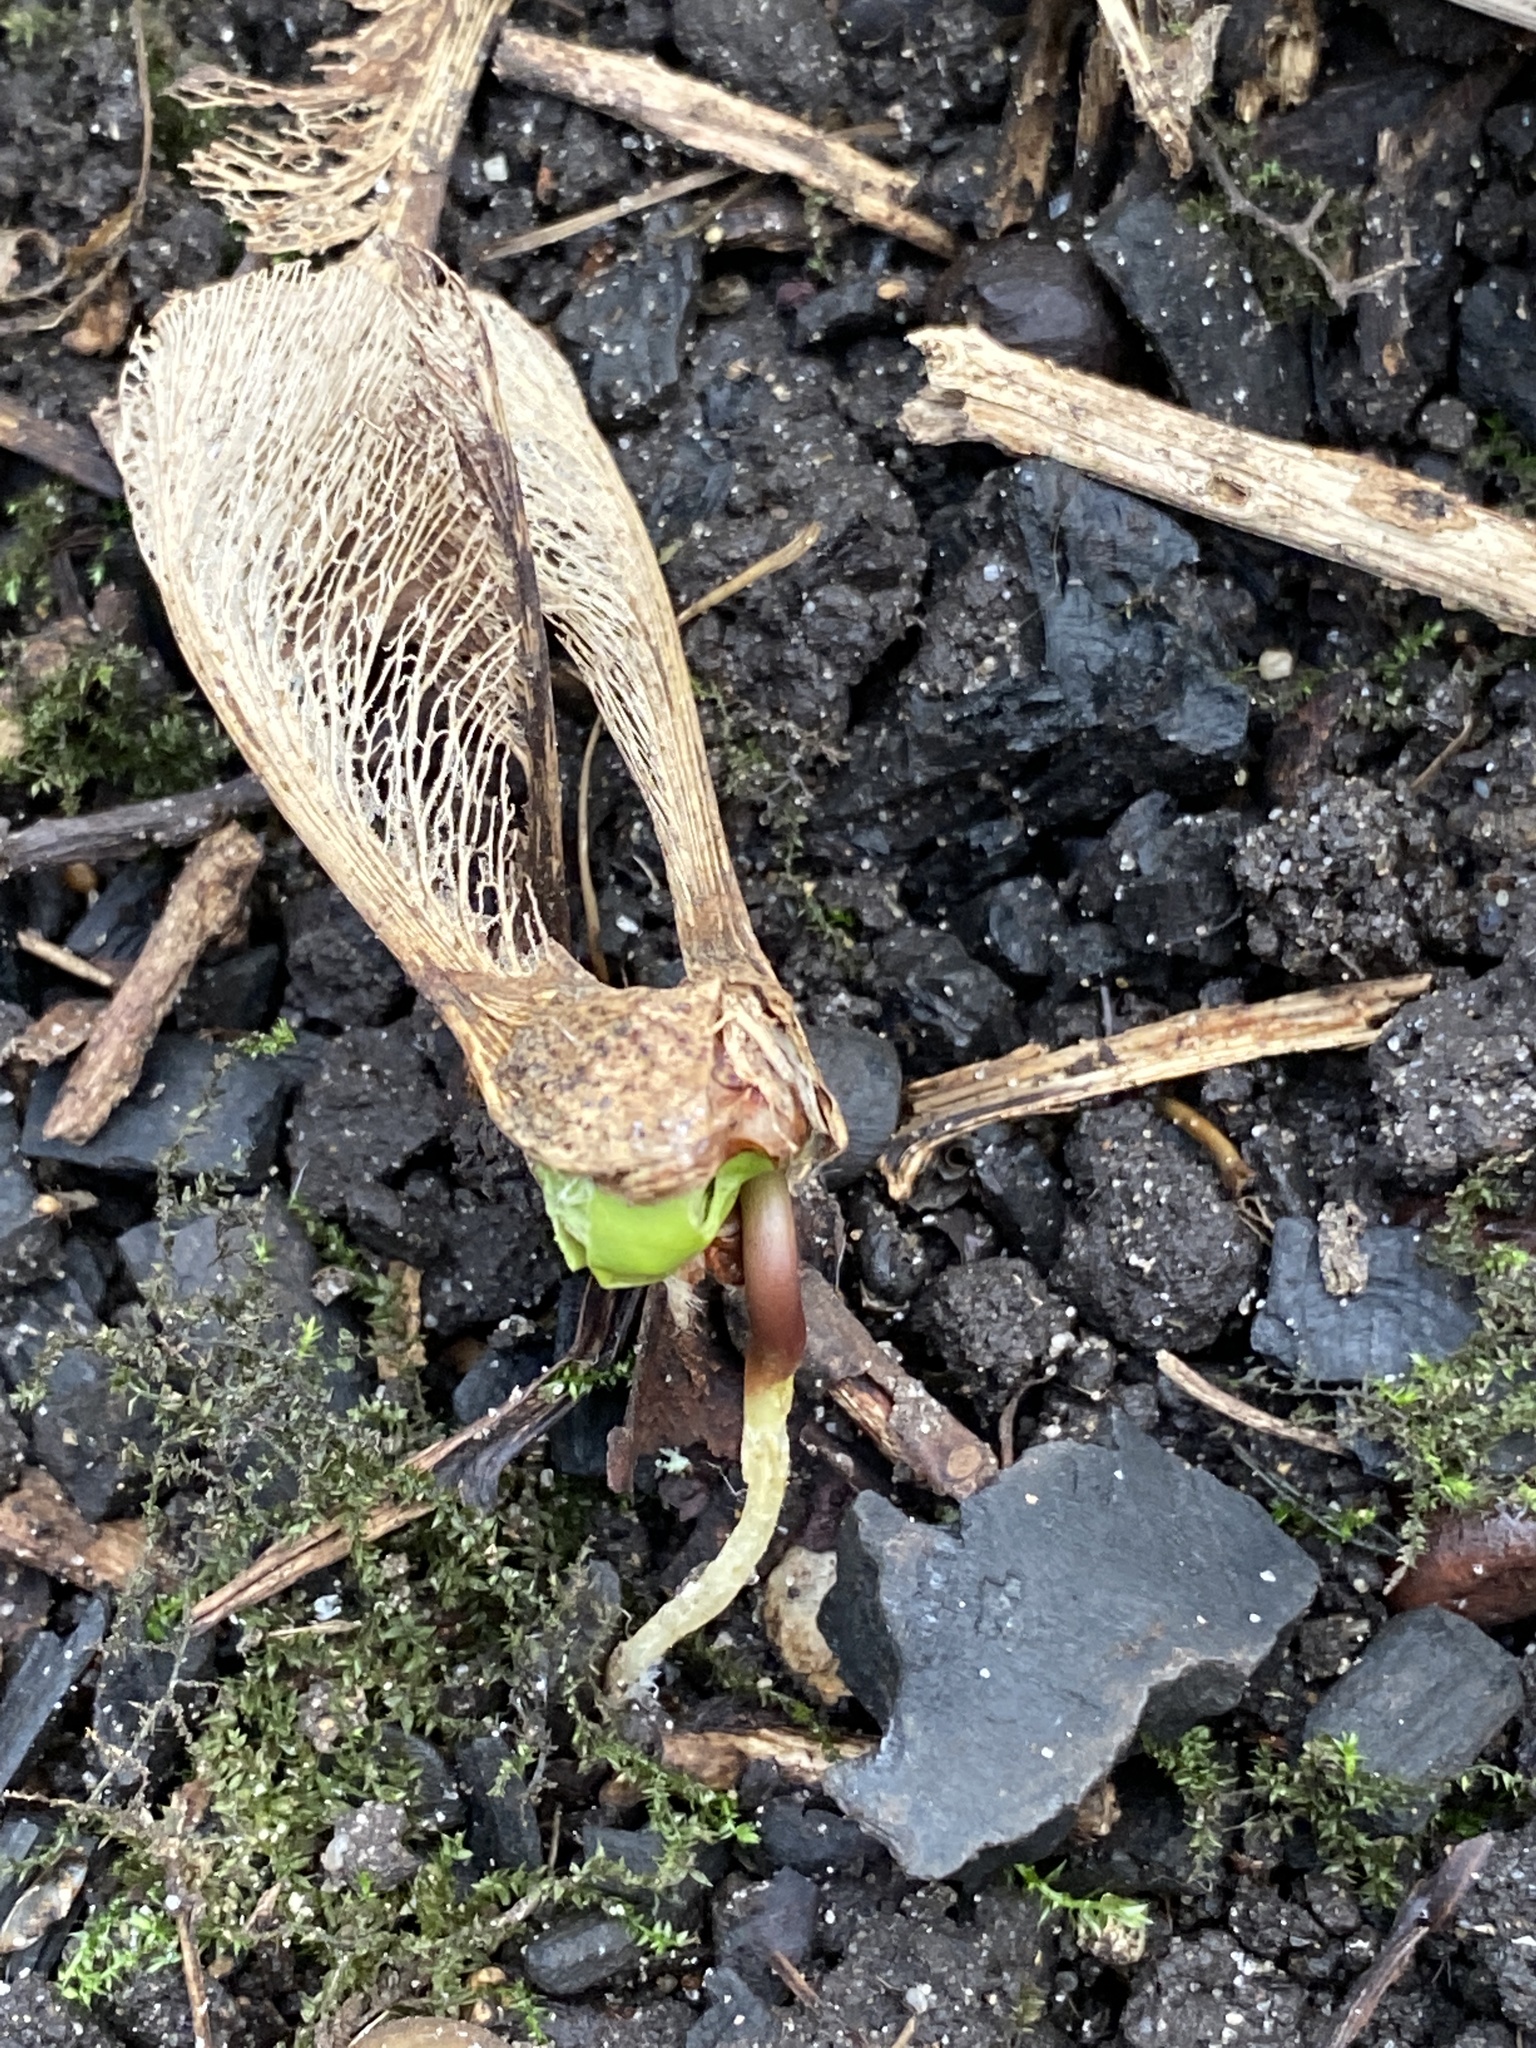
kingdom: Plantae
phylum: Tracheophyta
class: Magnoliopsida
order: Sapindales
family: Sapindaceae
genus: Acer
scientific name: Acer pseudoplatanus
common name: Sycamore
